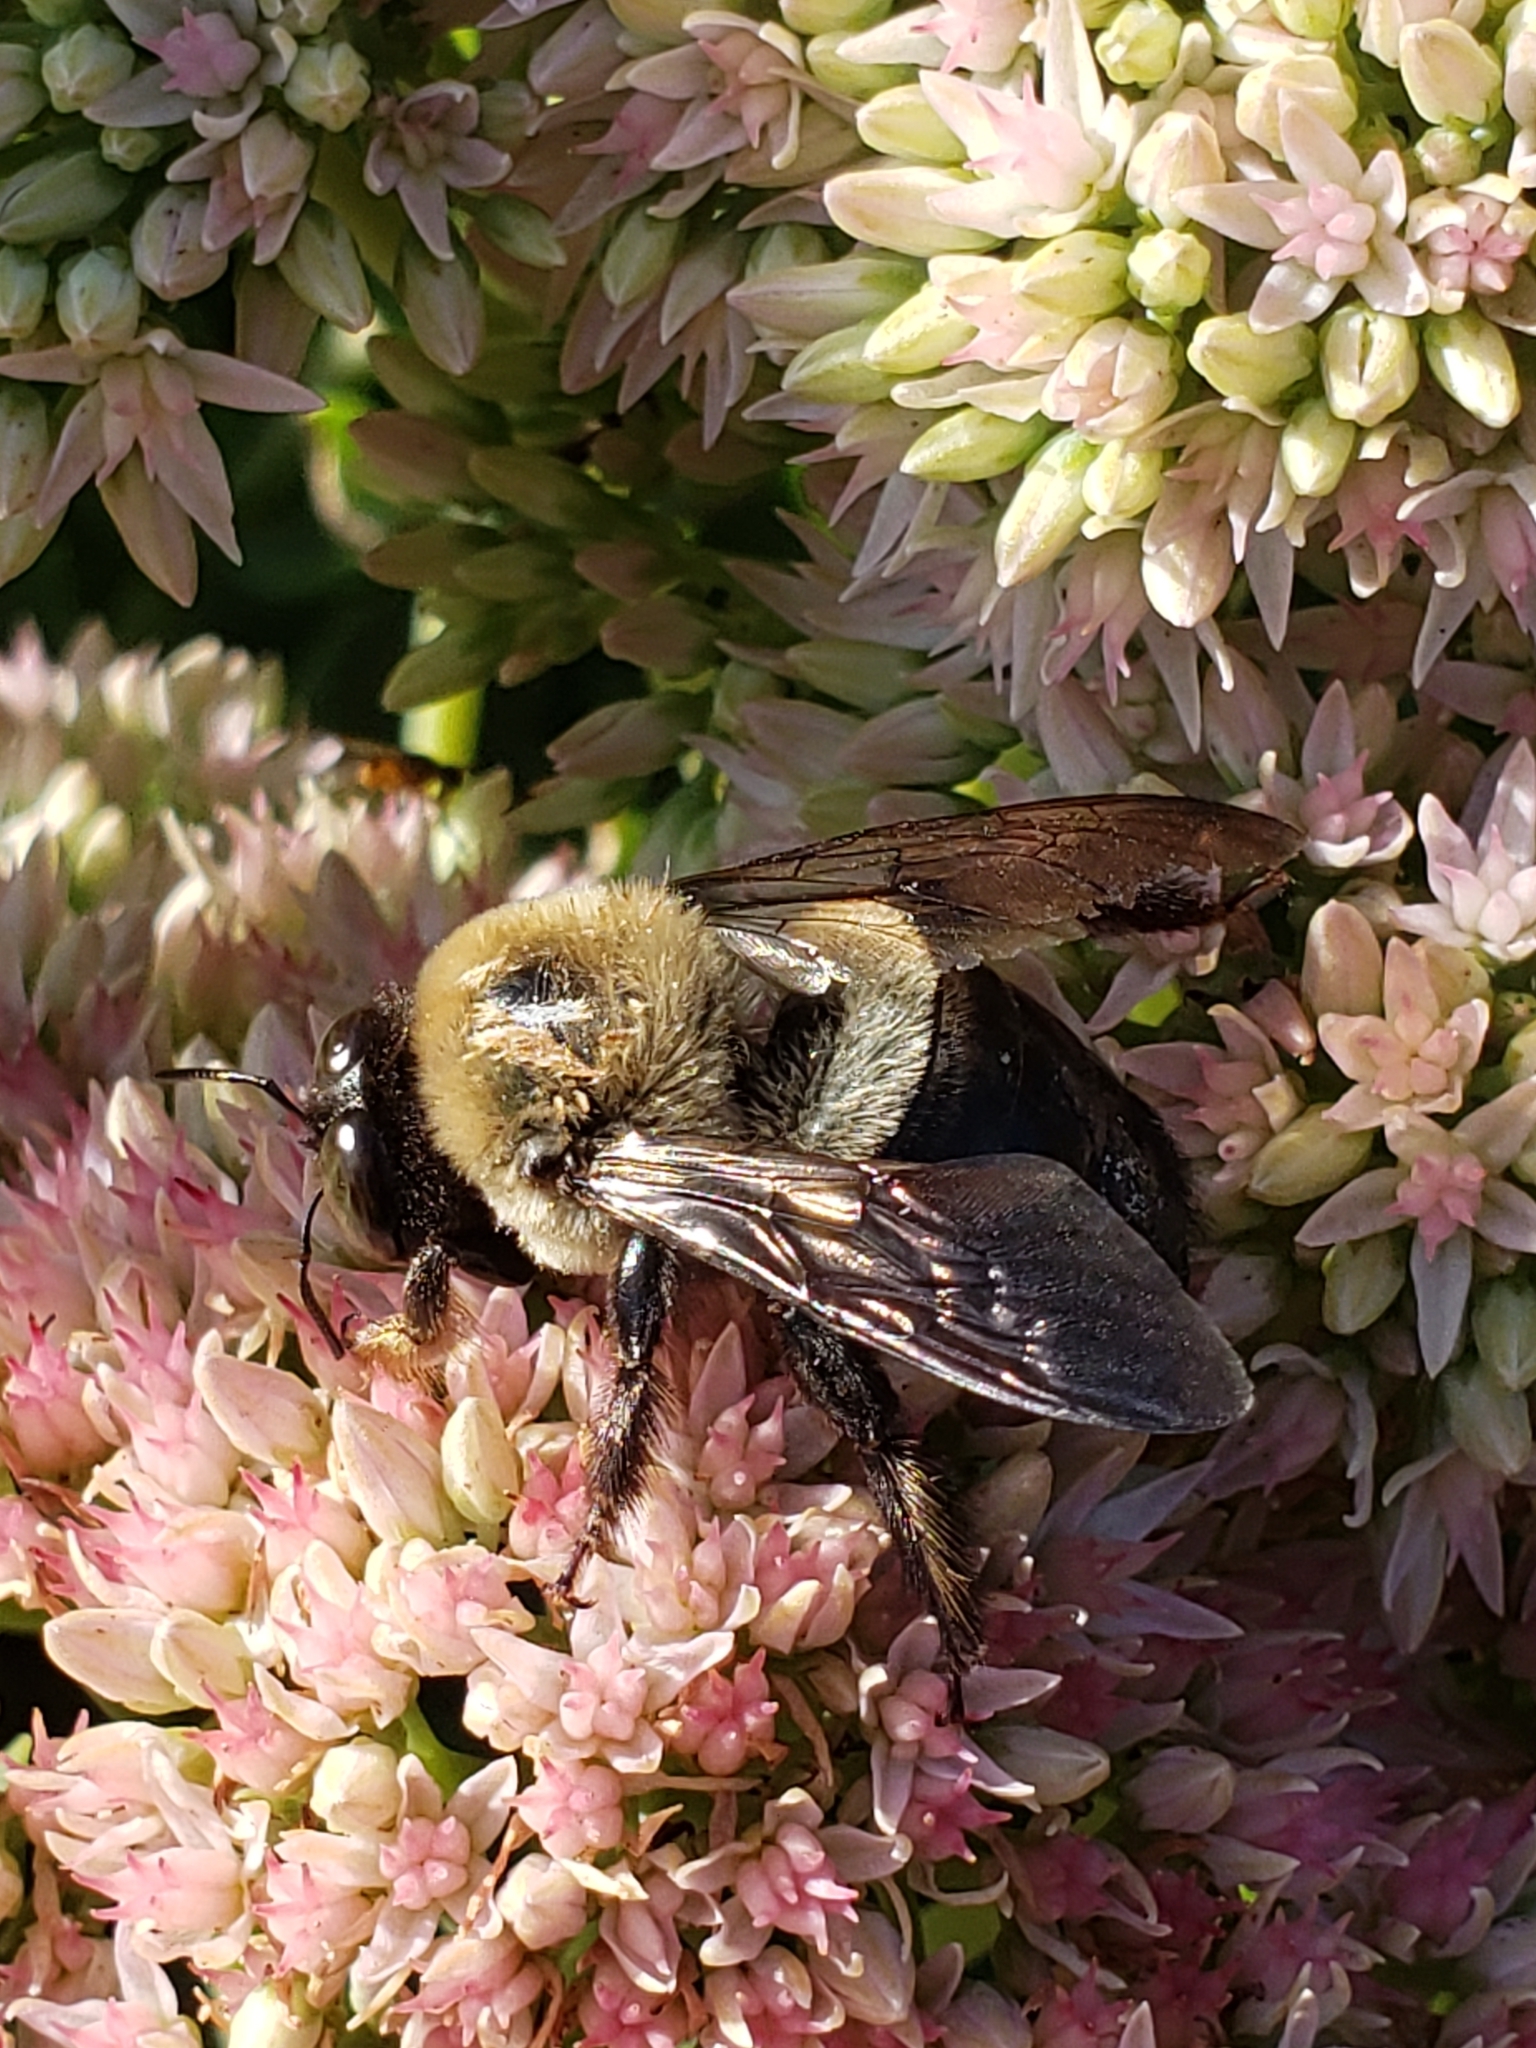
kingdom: Animalia
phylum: Arthropoda
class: Insecta
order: Hymenoptera
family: Apidae
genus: Xylocopa
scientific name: Xylocopa virginica
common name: Carpenter bee
